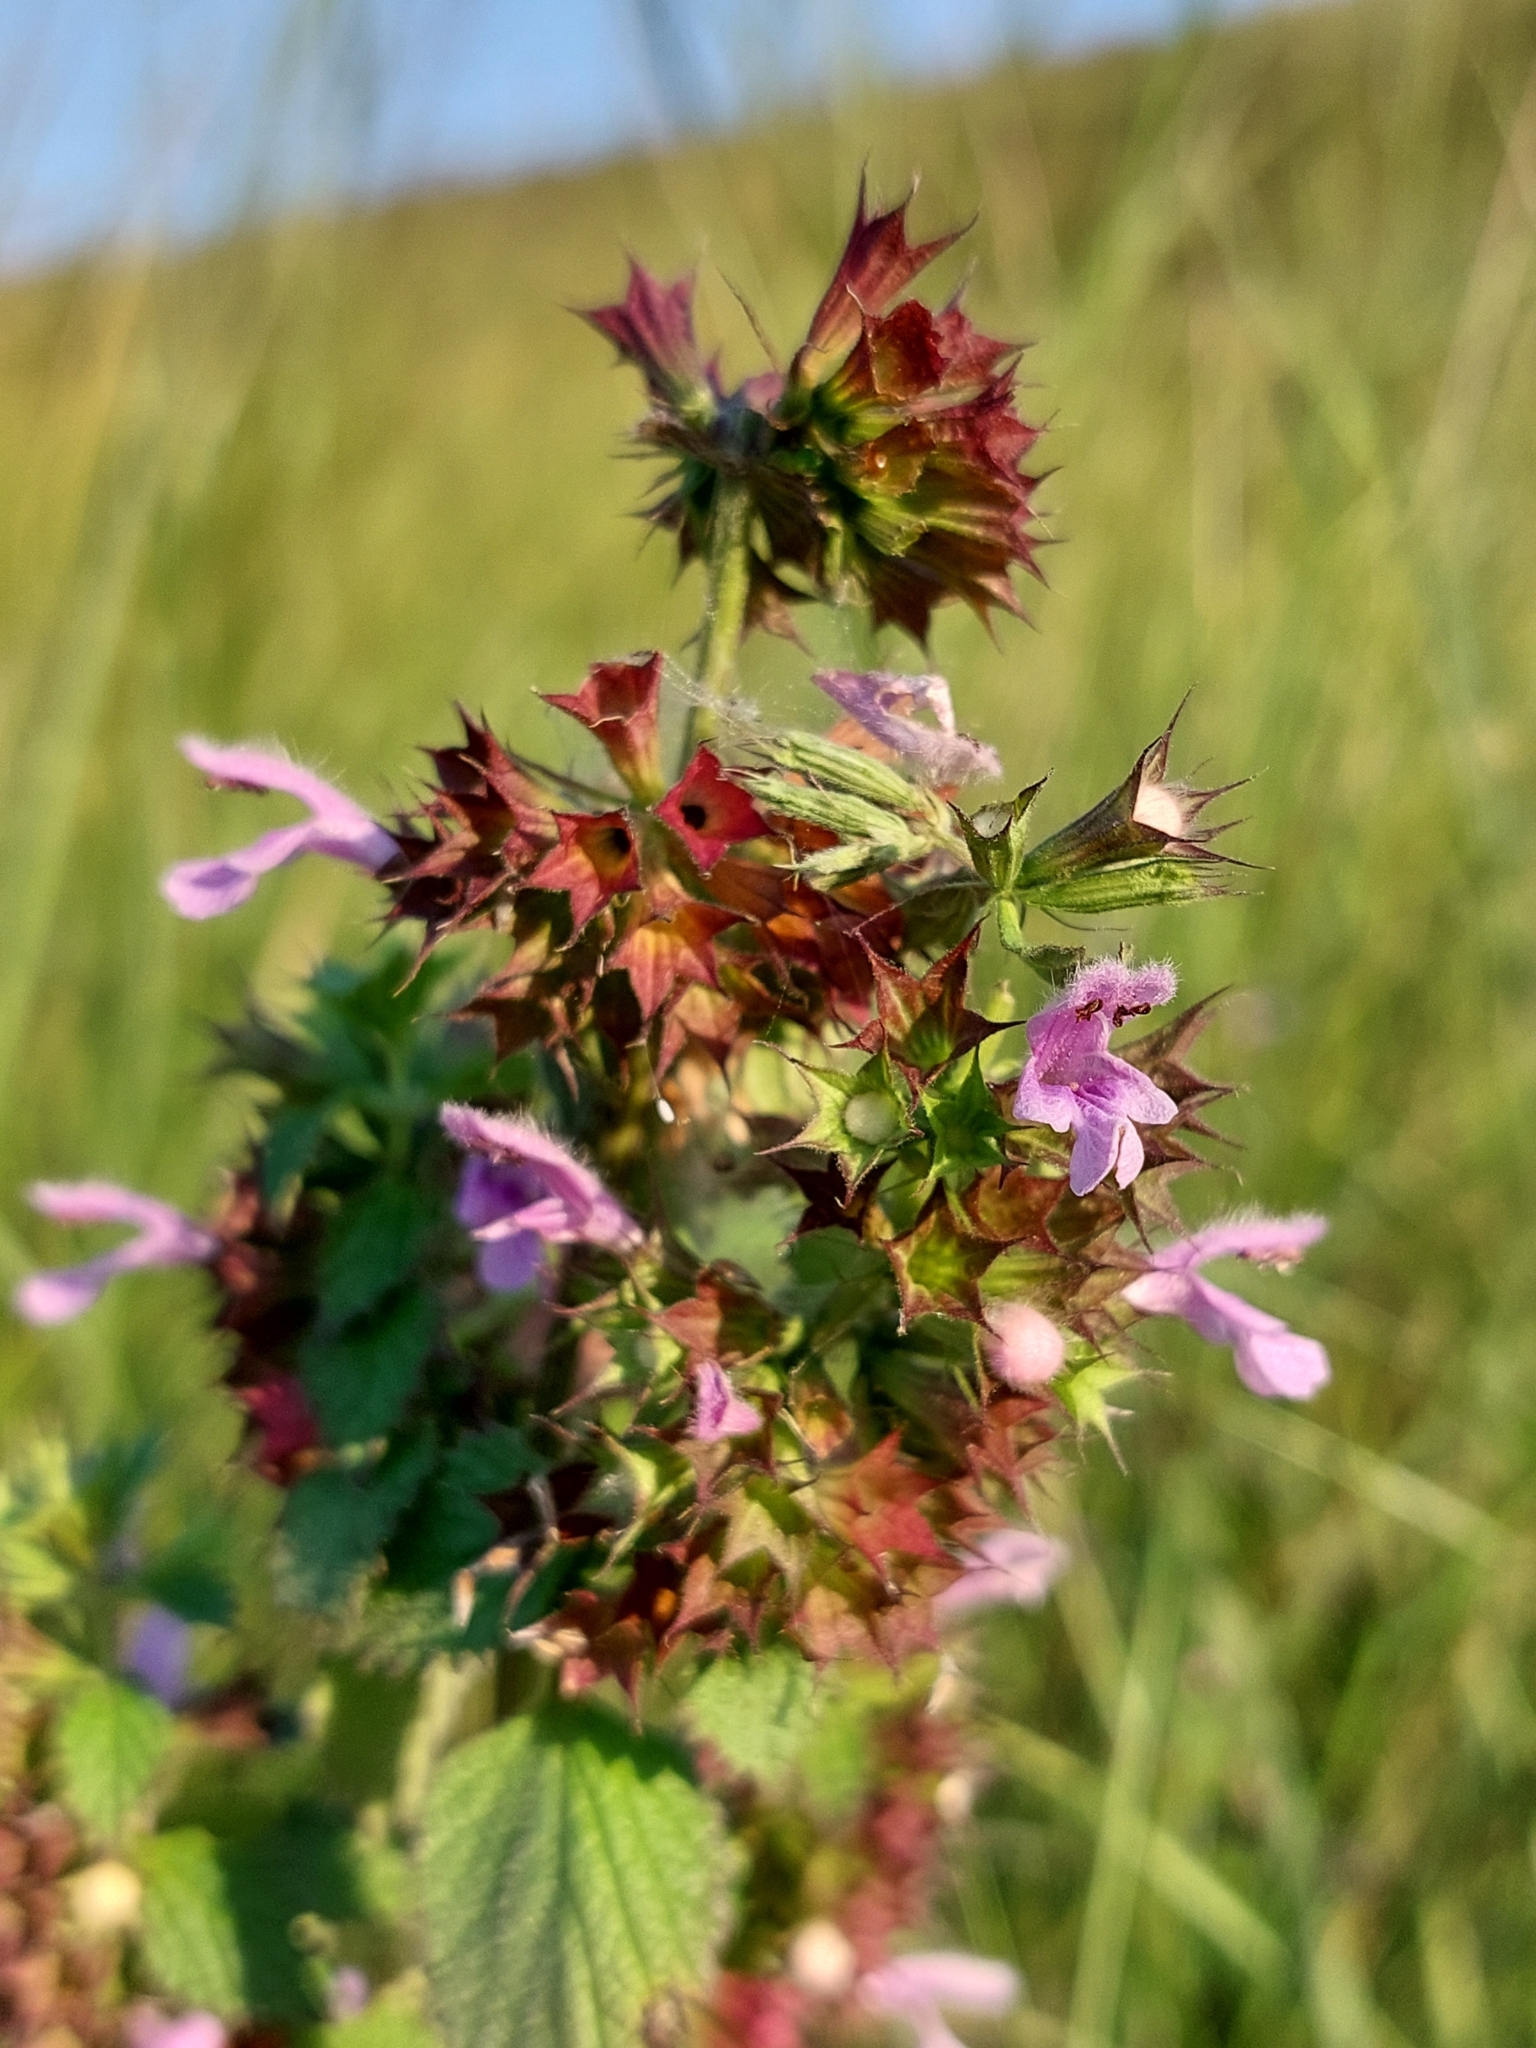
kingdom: Plantae
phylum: Tracheophyta
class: Magnoliopsida
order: Lamiales
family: Lamiaceae
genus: Ballota
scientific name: Ballota nigra
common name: Black horehound
